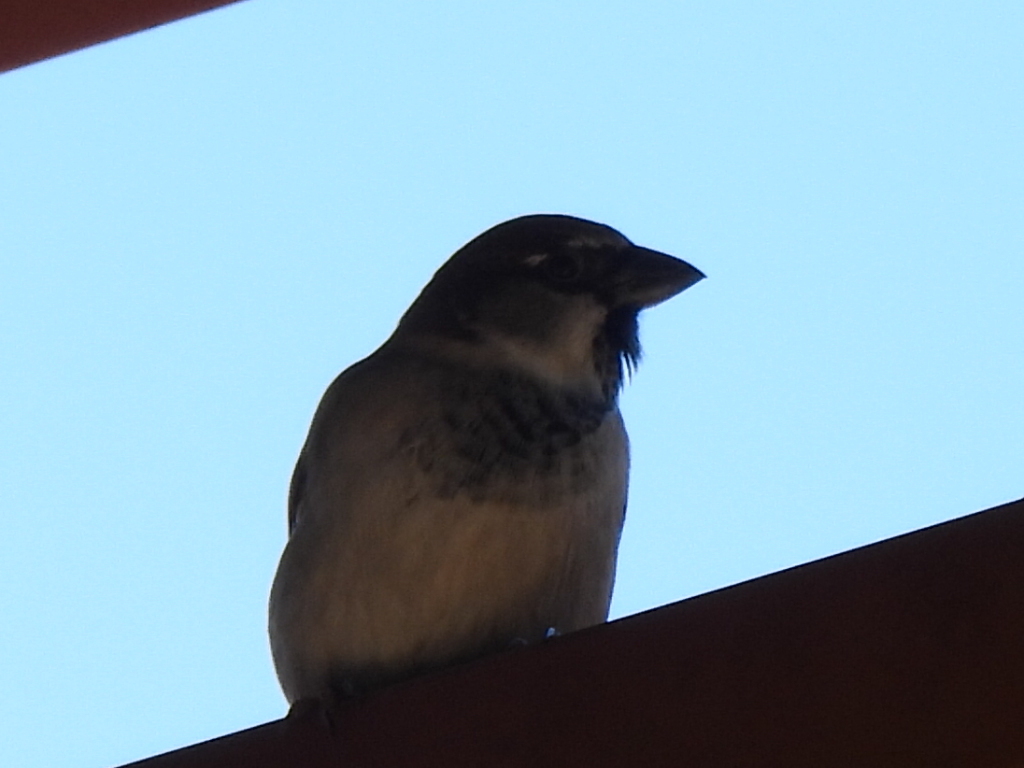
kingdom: Animalia
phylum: Chordata
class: Aves
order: Passeriformes
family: Passeridae
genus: Passer
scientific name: Passer domesticus
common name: House sparrow
